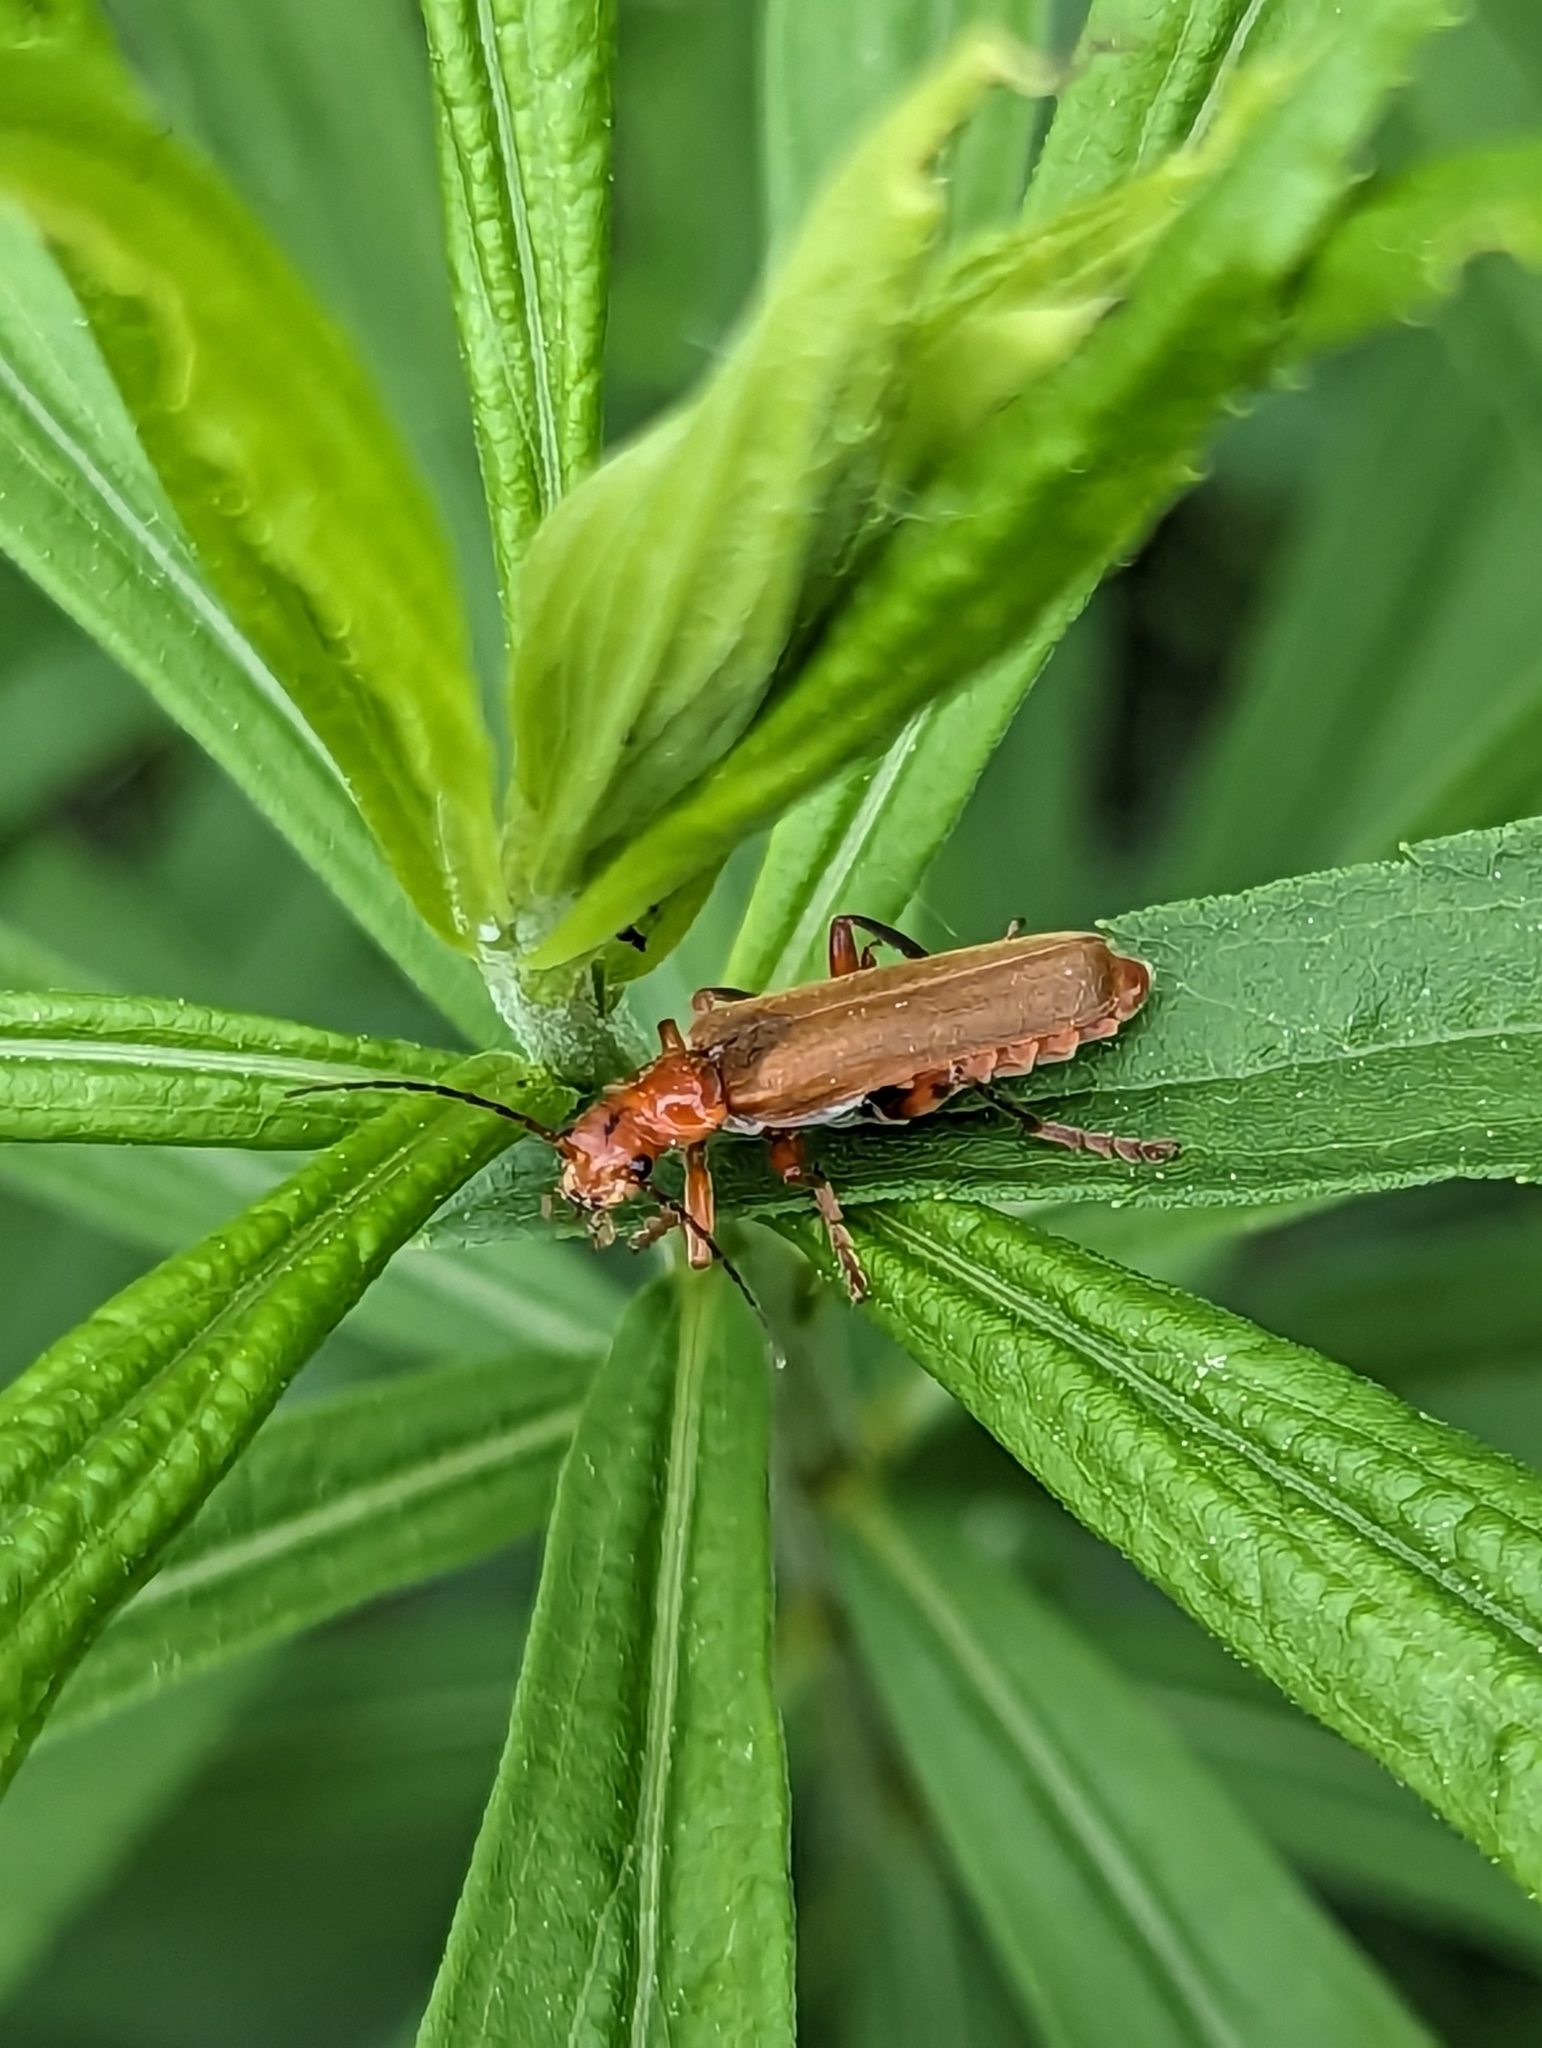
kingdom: Animalia
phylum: Arthropoda
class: Insecta
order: Coleoptera
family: Cantharidae
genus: Cantharis
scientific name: Cantharis livida
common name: Livid soldier beetle
